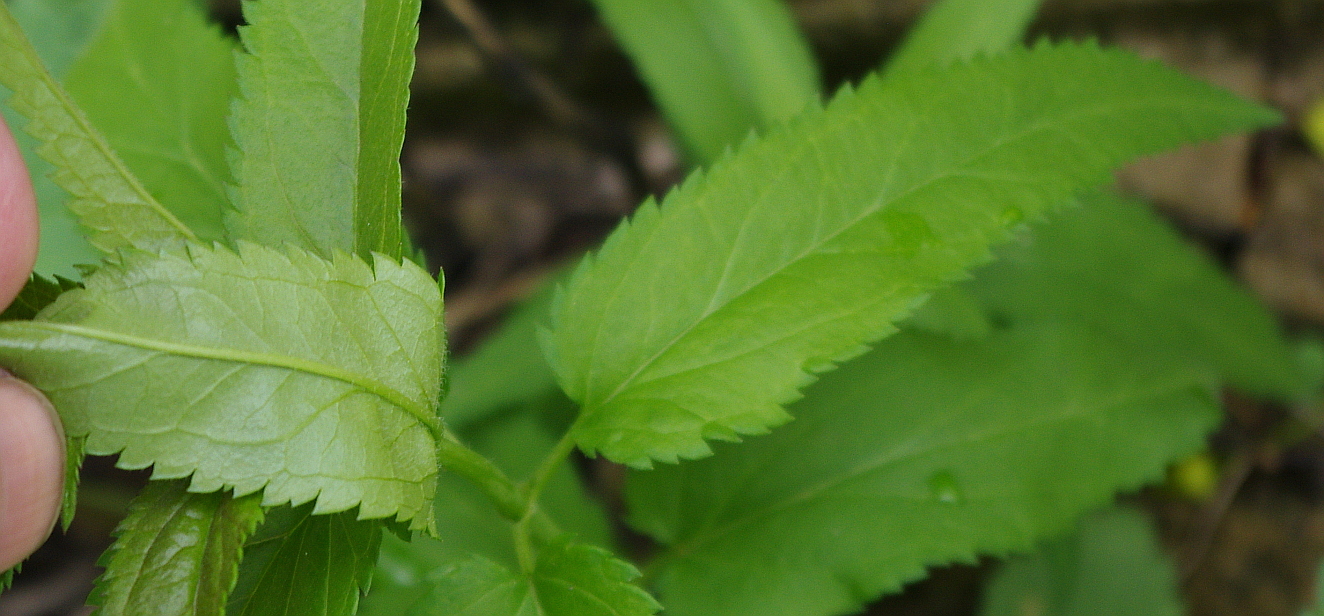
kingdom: Plantae
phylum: Tracheophyta
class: Magnoliopsida
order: Lamiales
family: Plantaginaceae
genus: Veronica
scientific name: Veronica longifolia
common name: Garden speedwell
